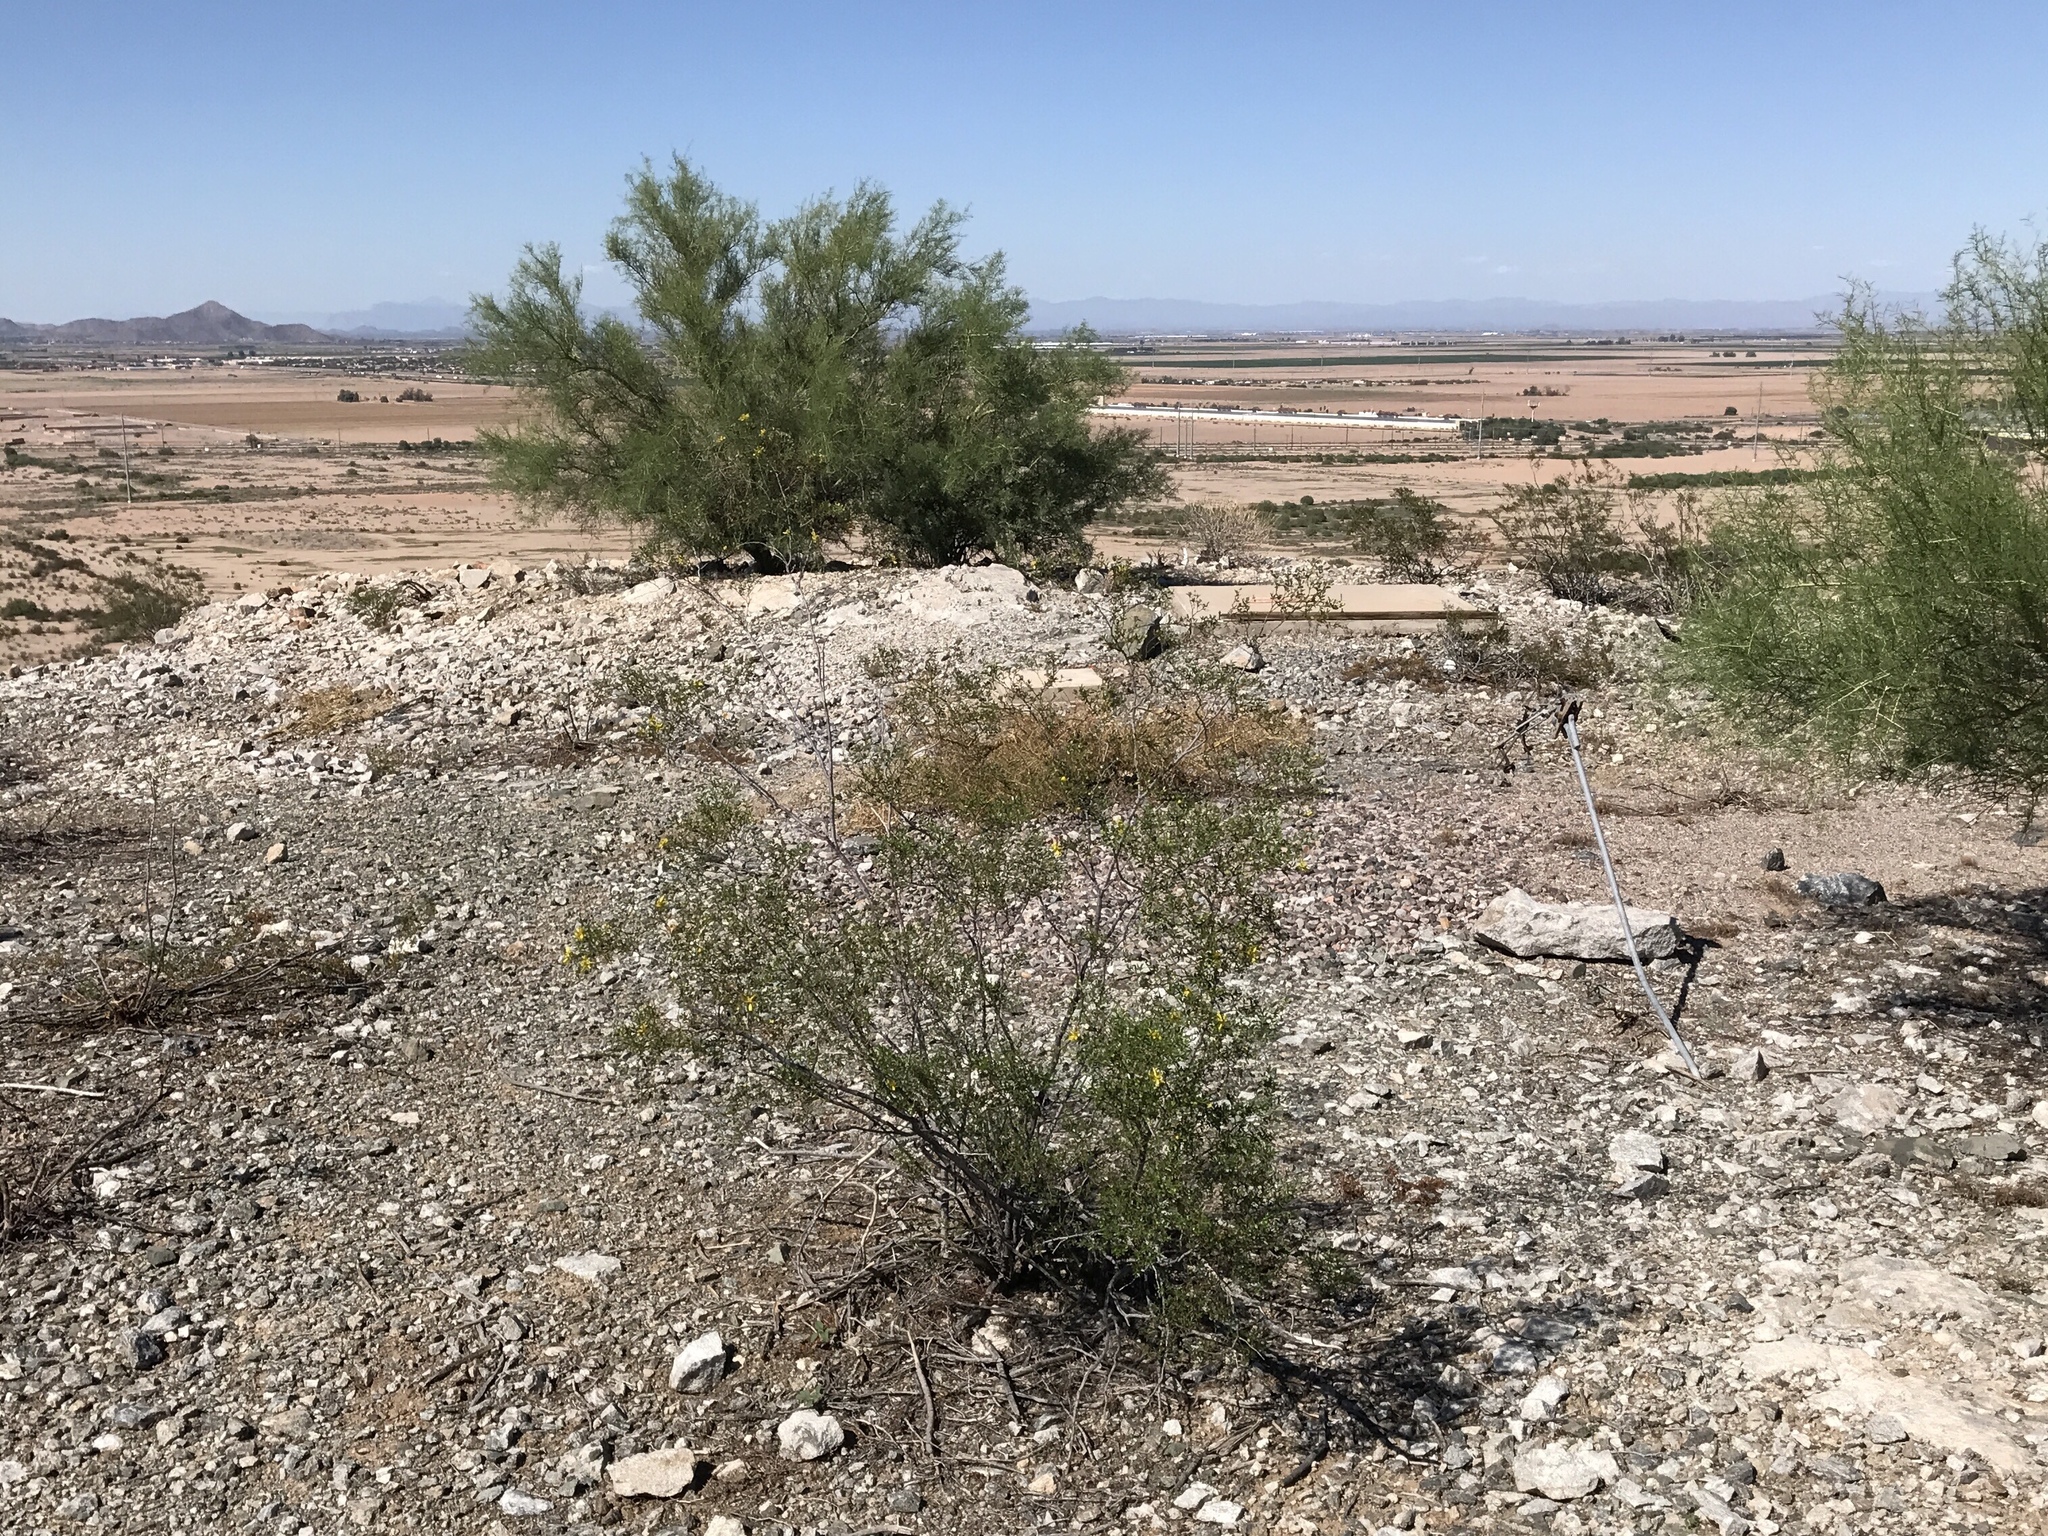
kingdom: Plantae
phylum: Tracheophyta
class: Magnoliopsida
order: Zygophyllales
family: Zygophyllaceae
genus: Larrea
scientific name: Larrea tridentata
